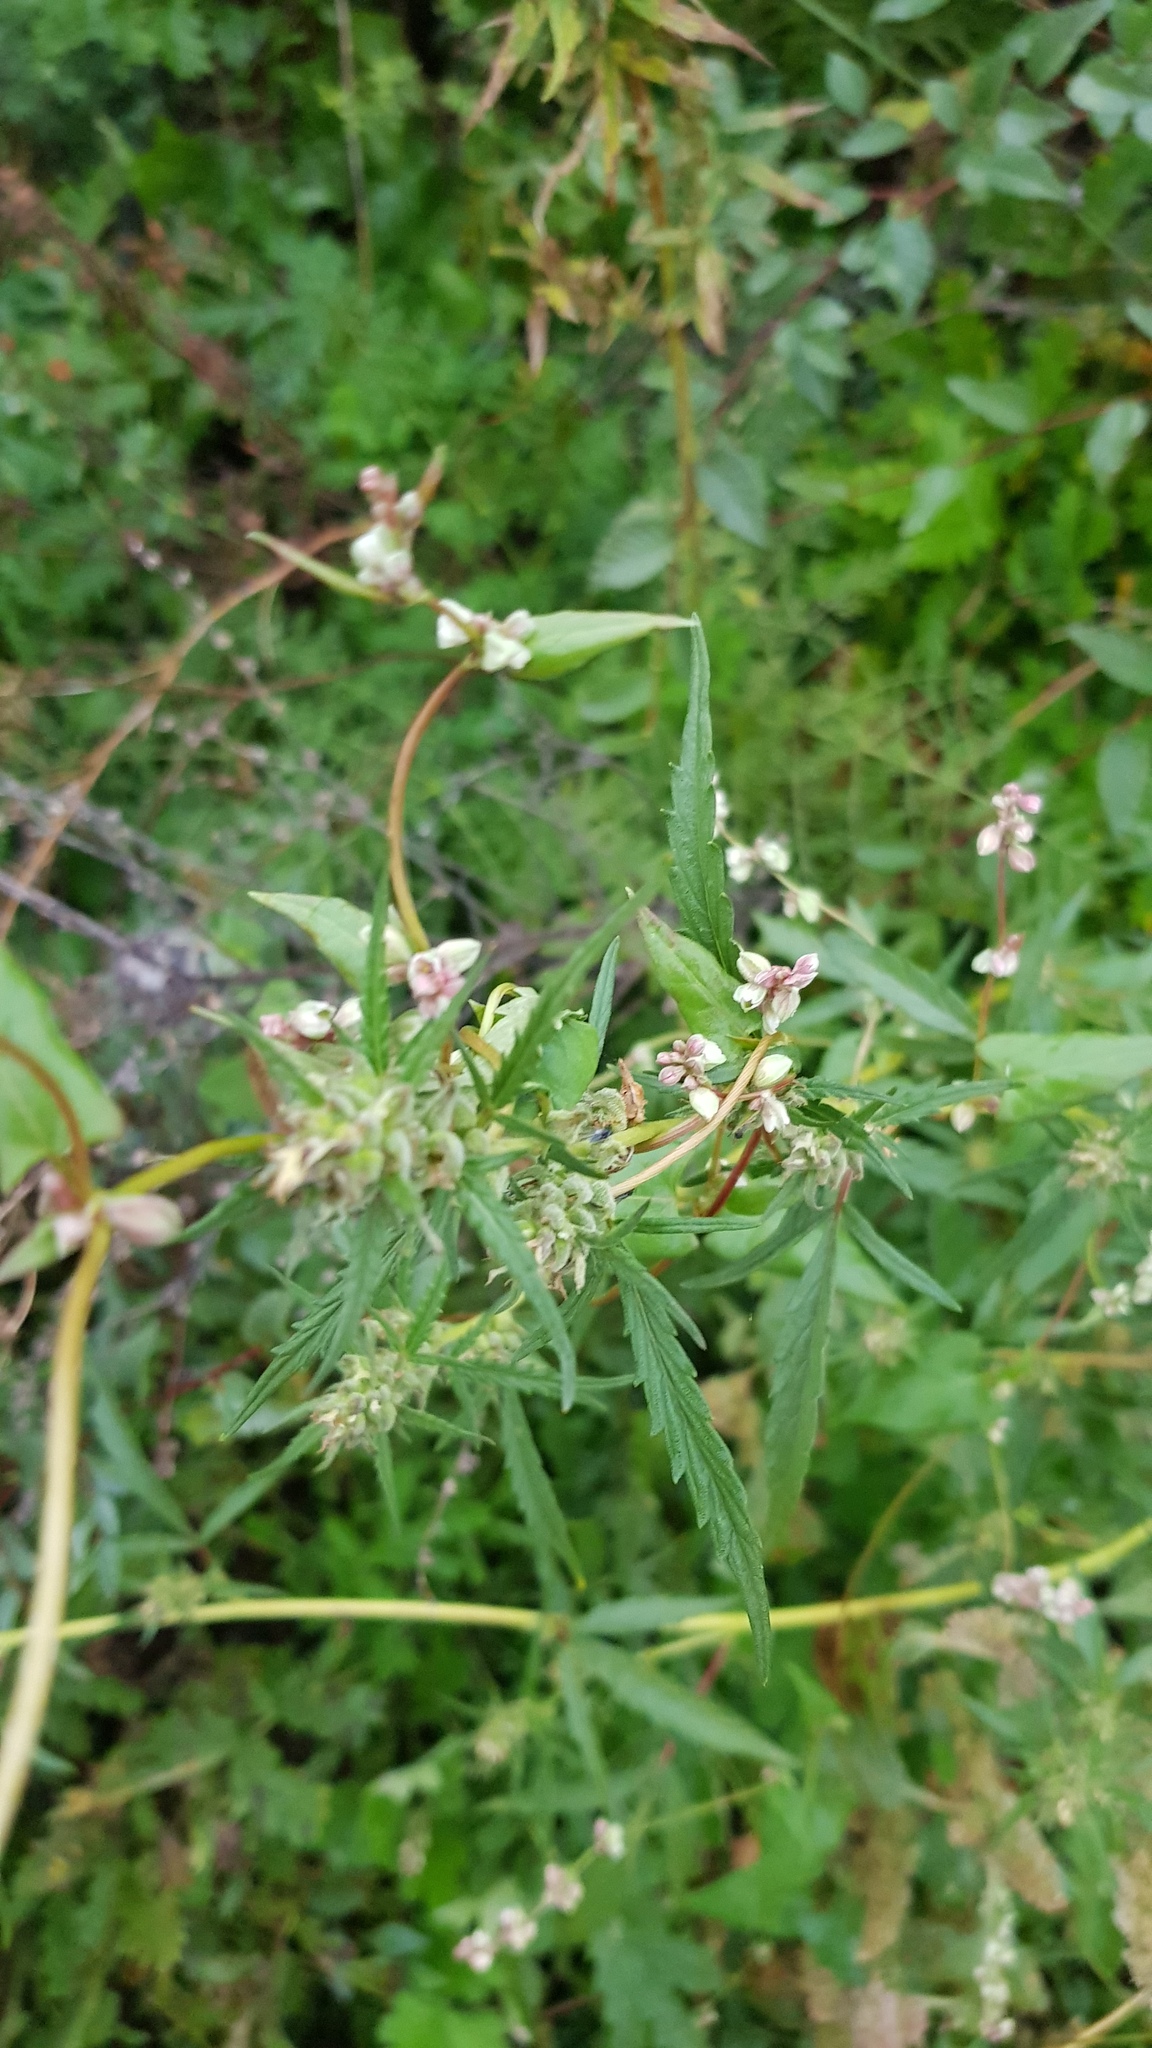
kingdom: Plantae
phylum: Tracheophyta
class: Magnoliopsida
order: Rosales
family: Cannabaceae
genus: Cannabis
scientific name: Cannabis sativa
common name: Hemp
